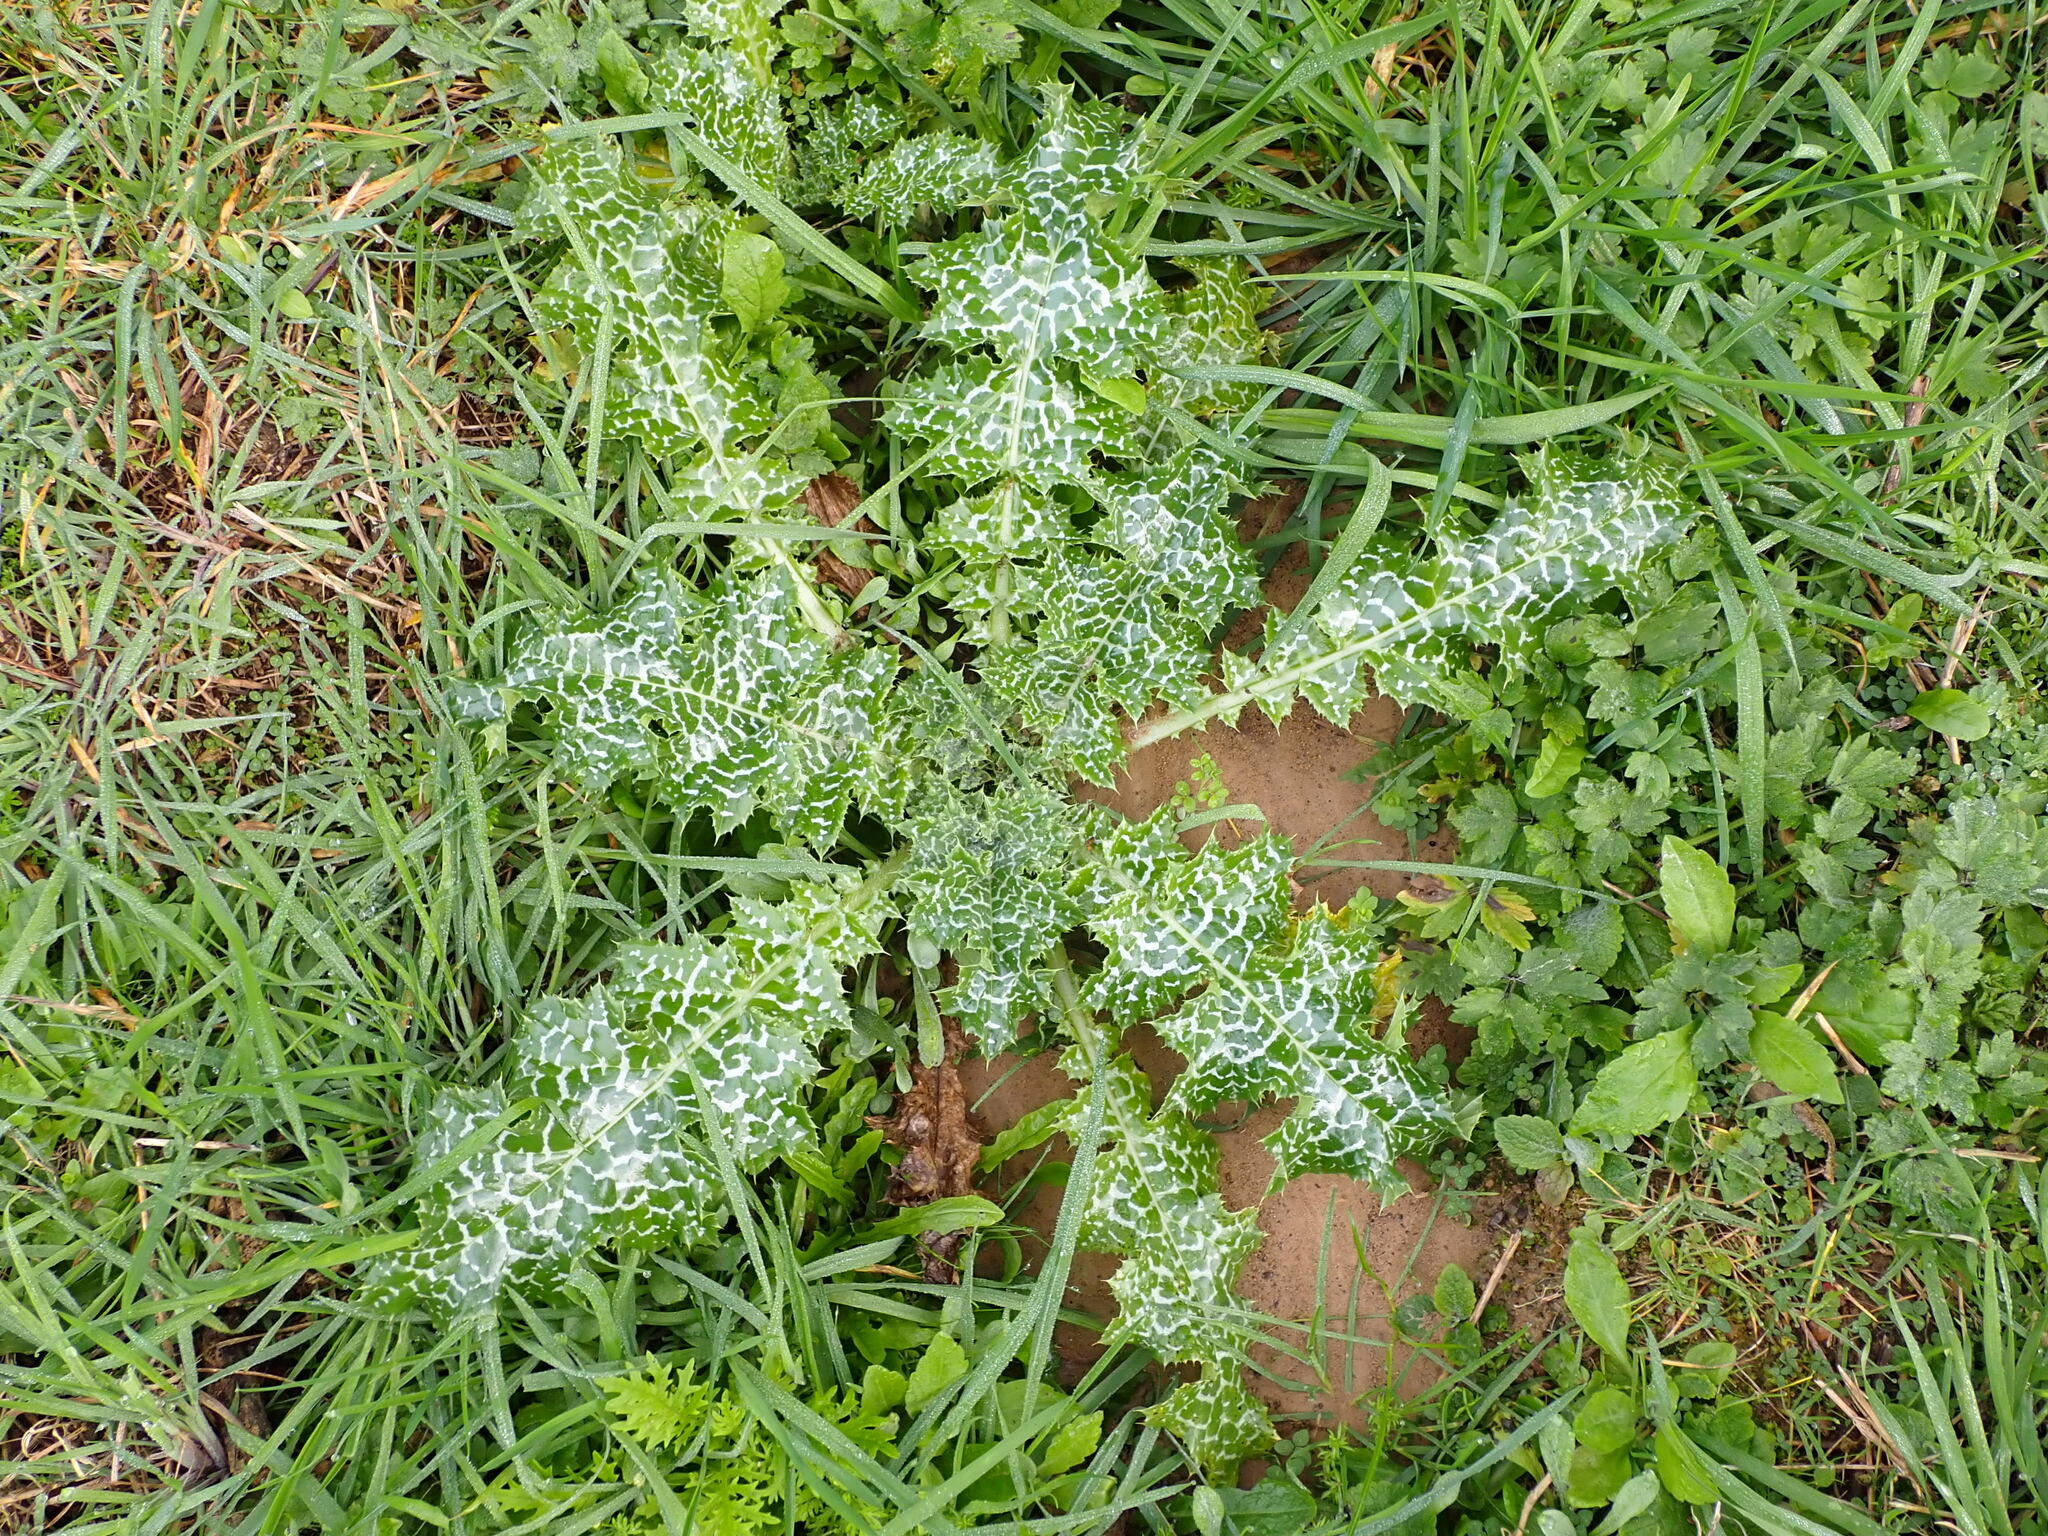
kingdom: Plantae
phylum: Tracheophyta
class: Magnoliopsida
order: Asterales
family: Asteraceae
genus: Silybum
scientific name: Silybum marianum
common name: Milk thistle
